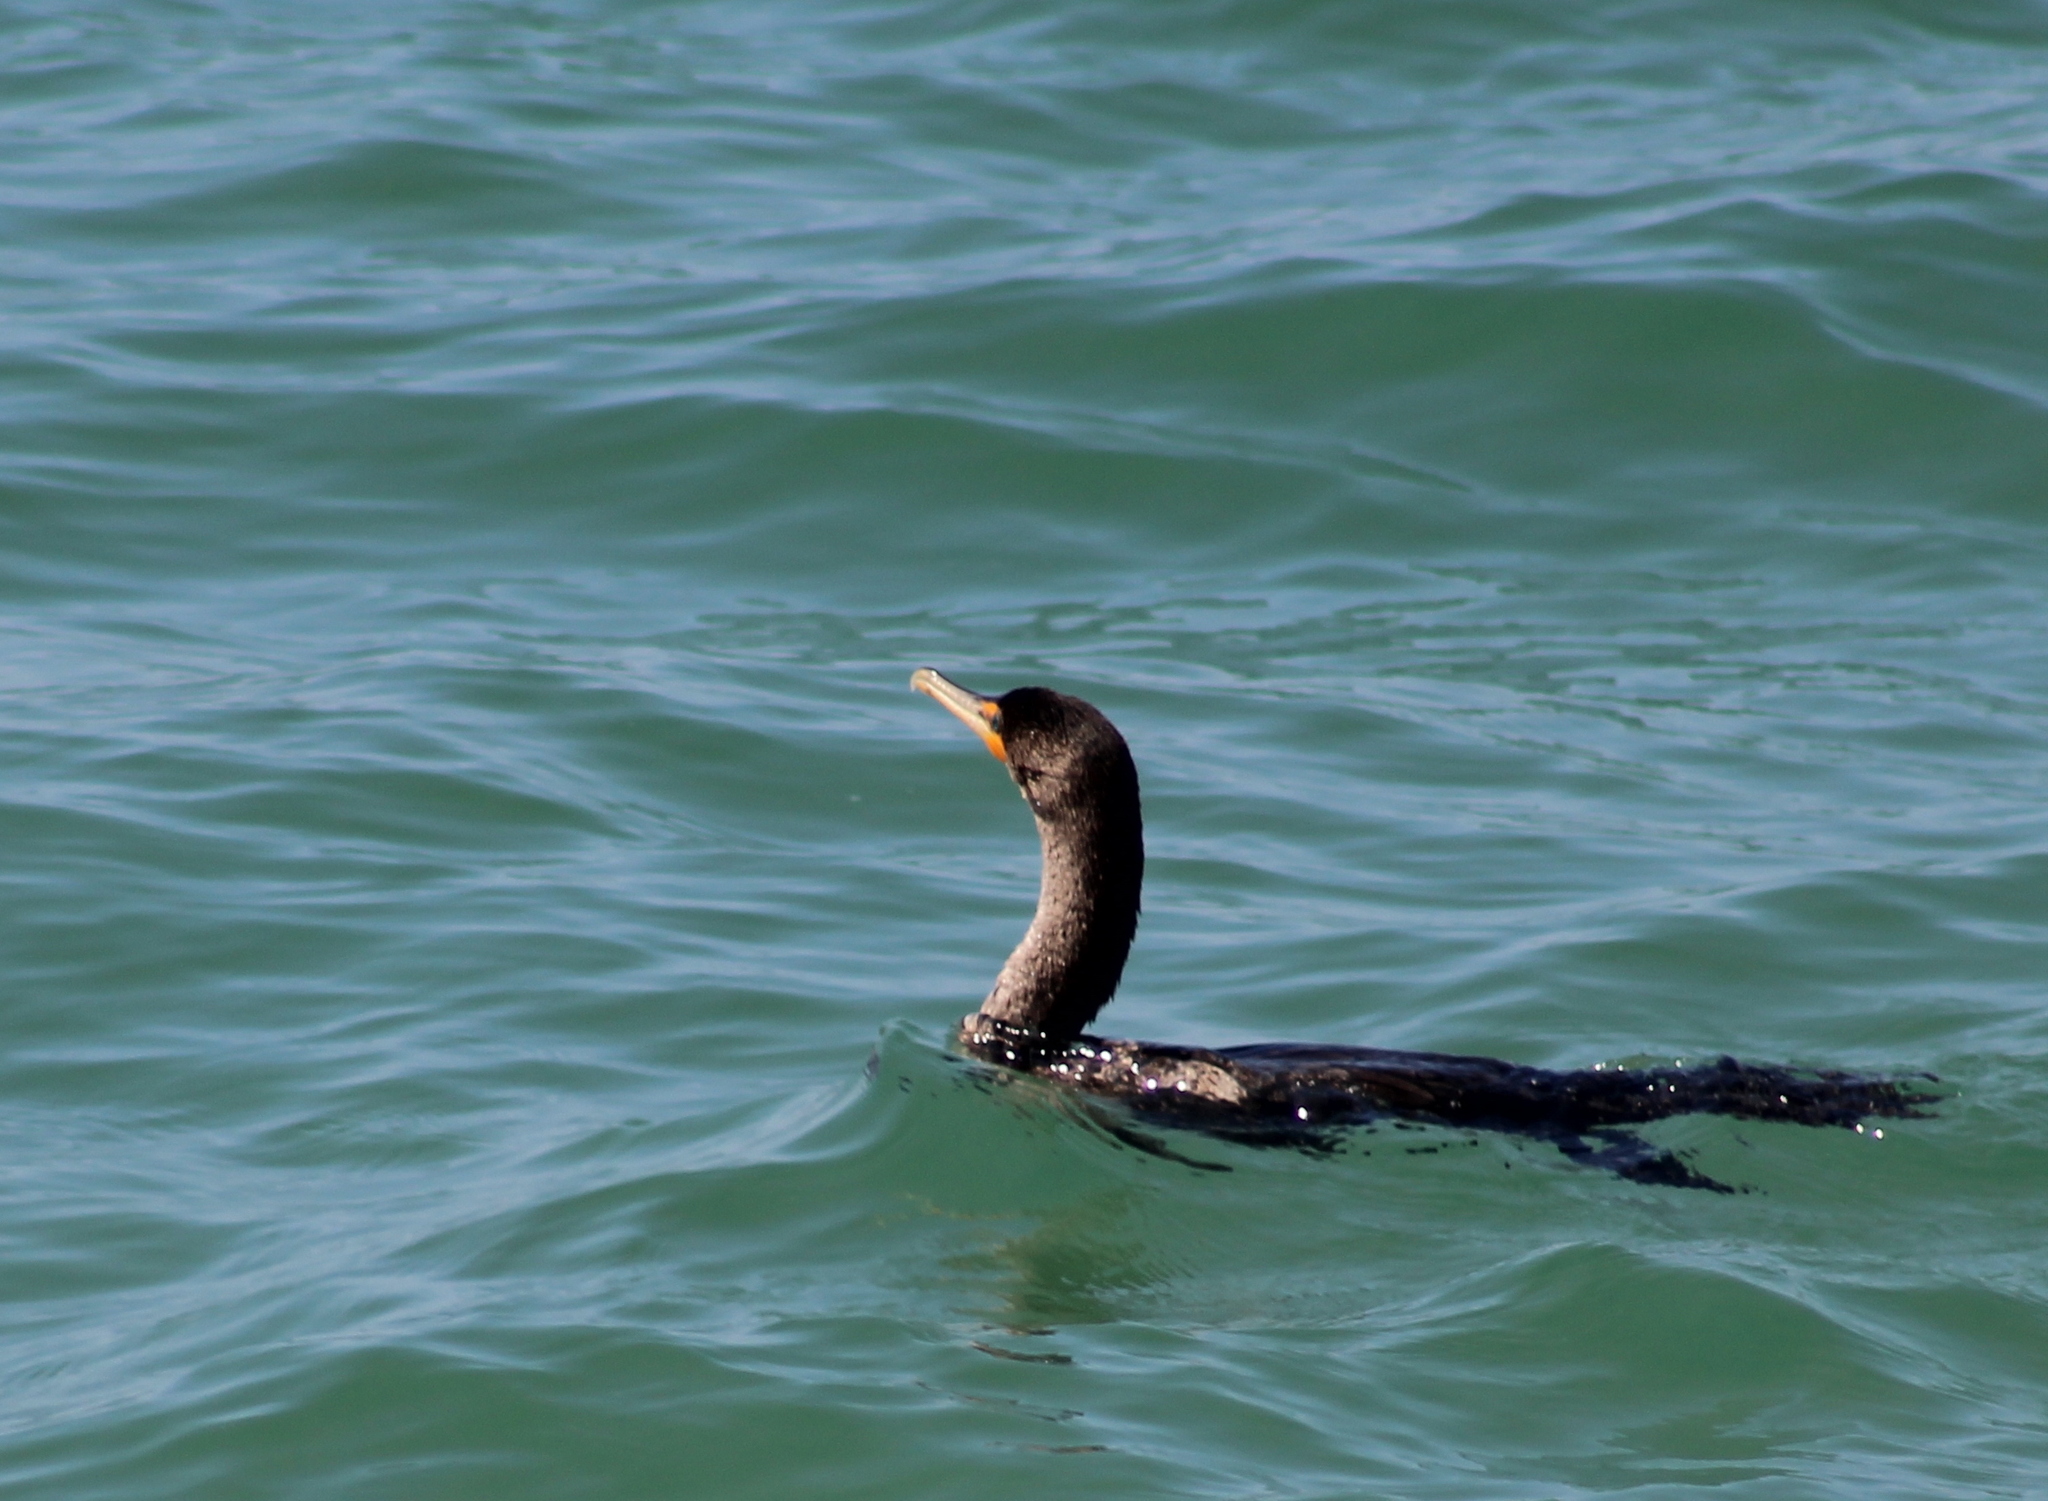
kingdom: Animalia
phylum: Chordata
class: Aves
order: Suliformes
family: Phalacrocoracidae
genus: Phalacrocorax
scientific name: Phalacrocorax auritus
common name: Double-crested cormorant
